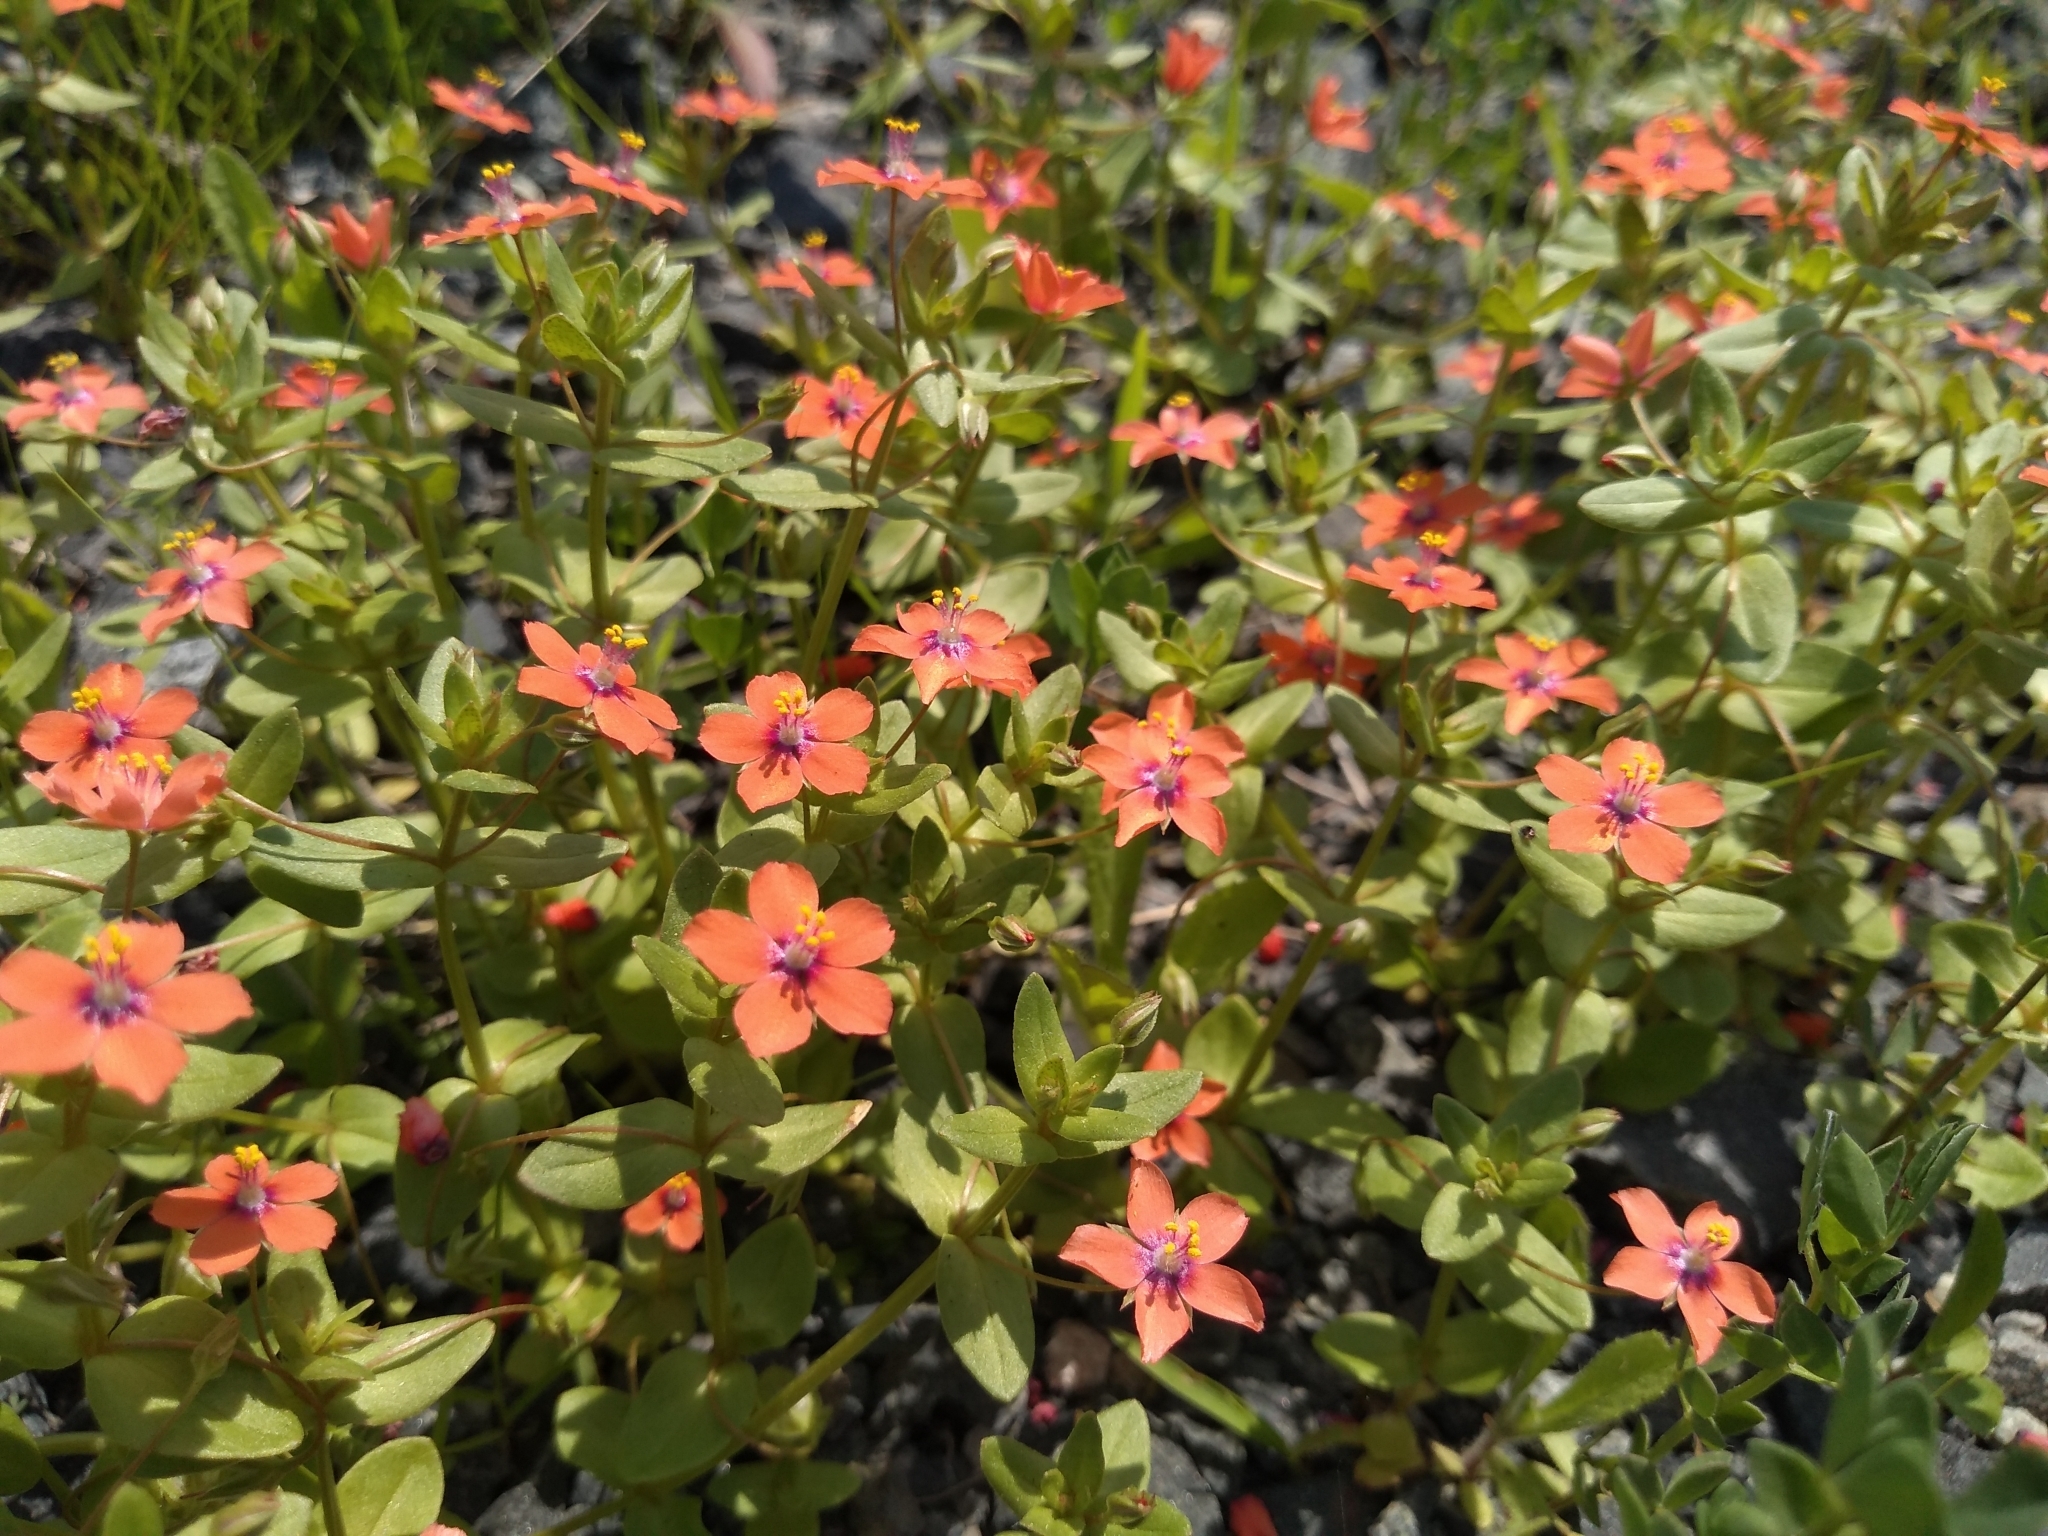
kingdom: Plantae
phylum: Tracheophyta
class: Magnoliopsida
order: Ericales
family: Primulaceae
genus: Lysimachia
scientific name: Lysimachia arvensis
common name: Scarlet pimpernel
